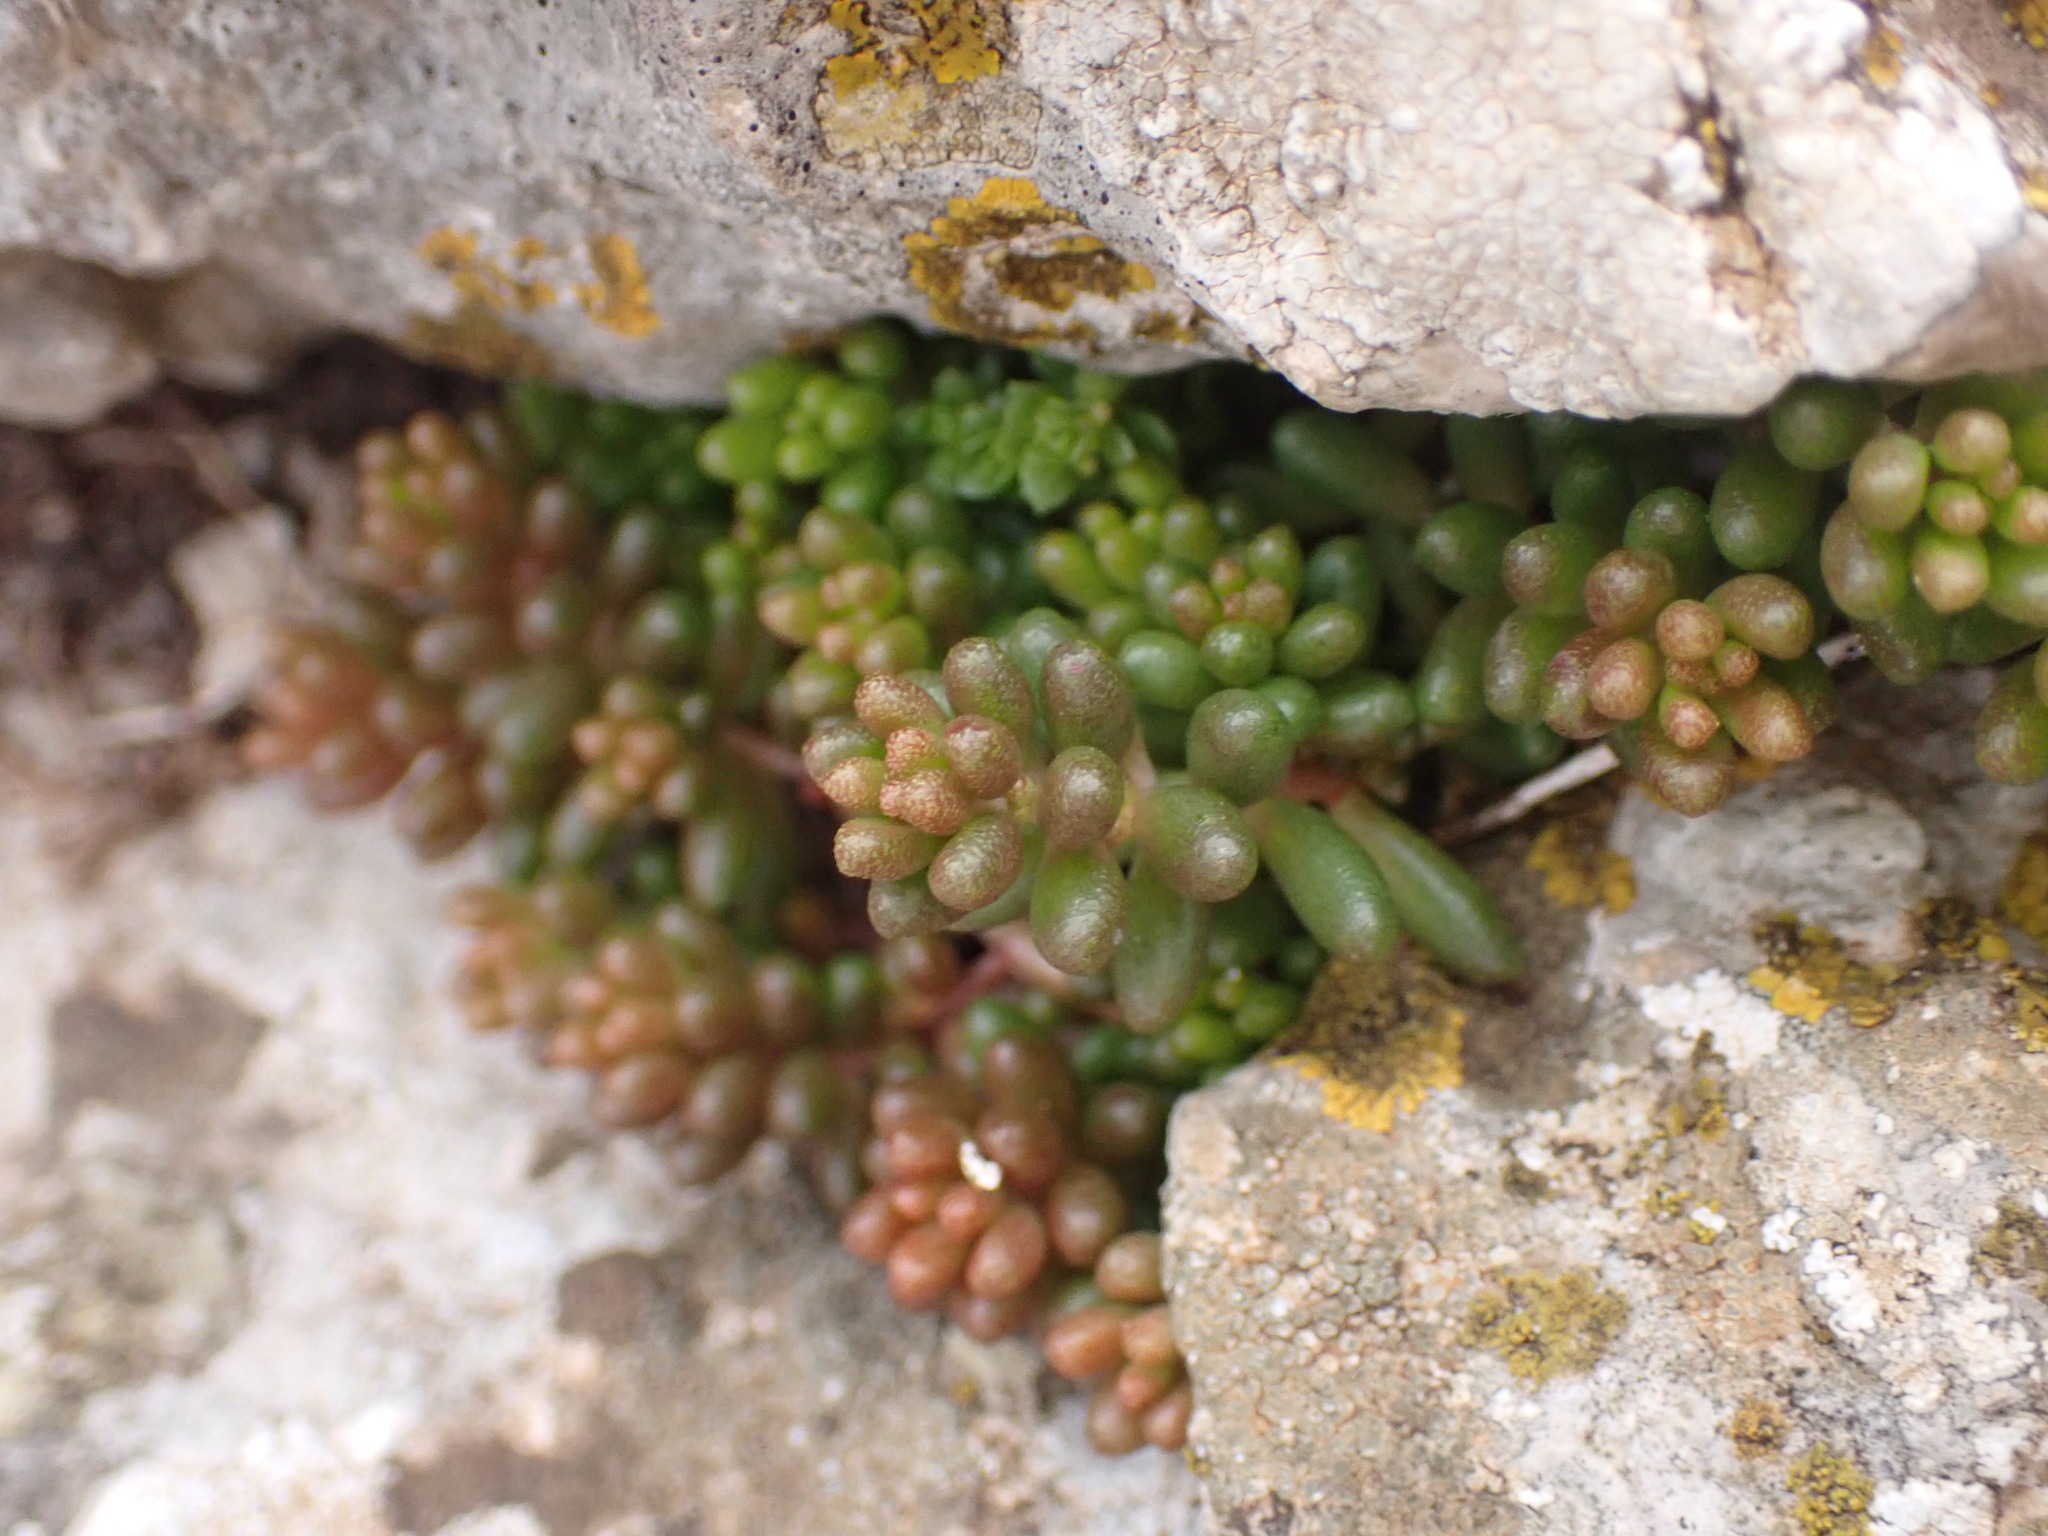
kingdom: Plantae
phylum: Tracheophyta
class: Magnoliopsida
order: Saxifragales
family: Crassulaceae
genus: Sedum
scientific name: Sedum album
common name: White stonecrop
